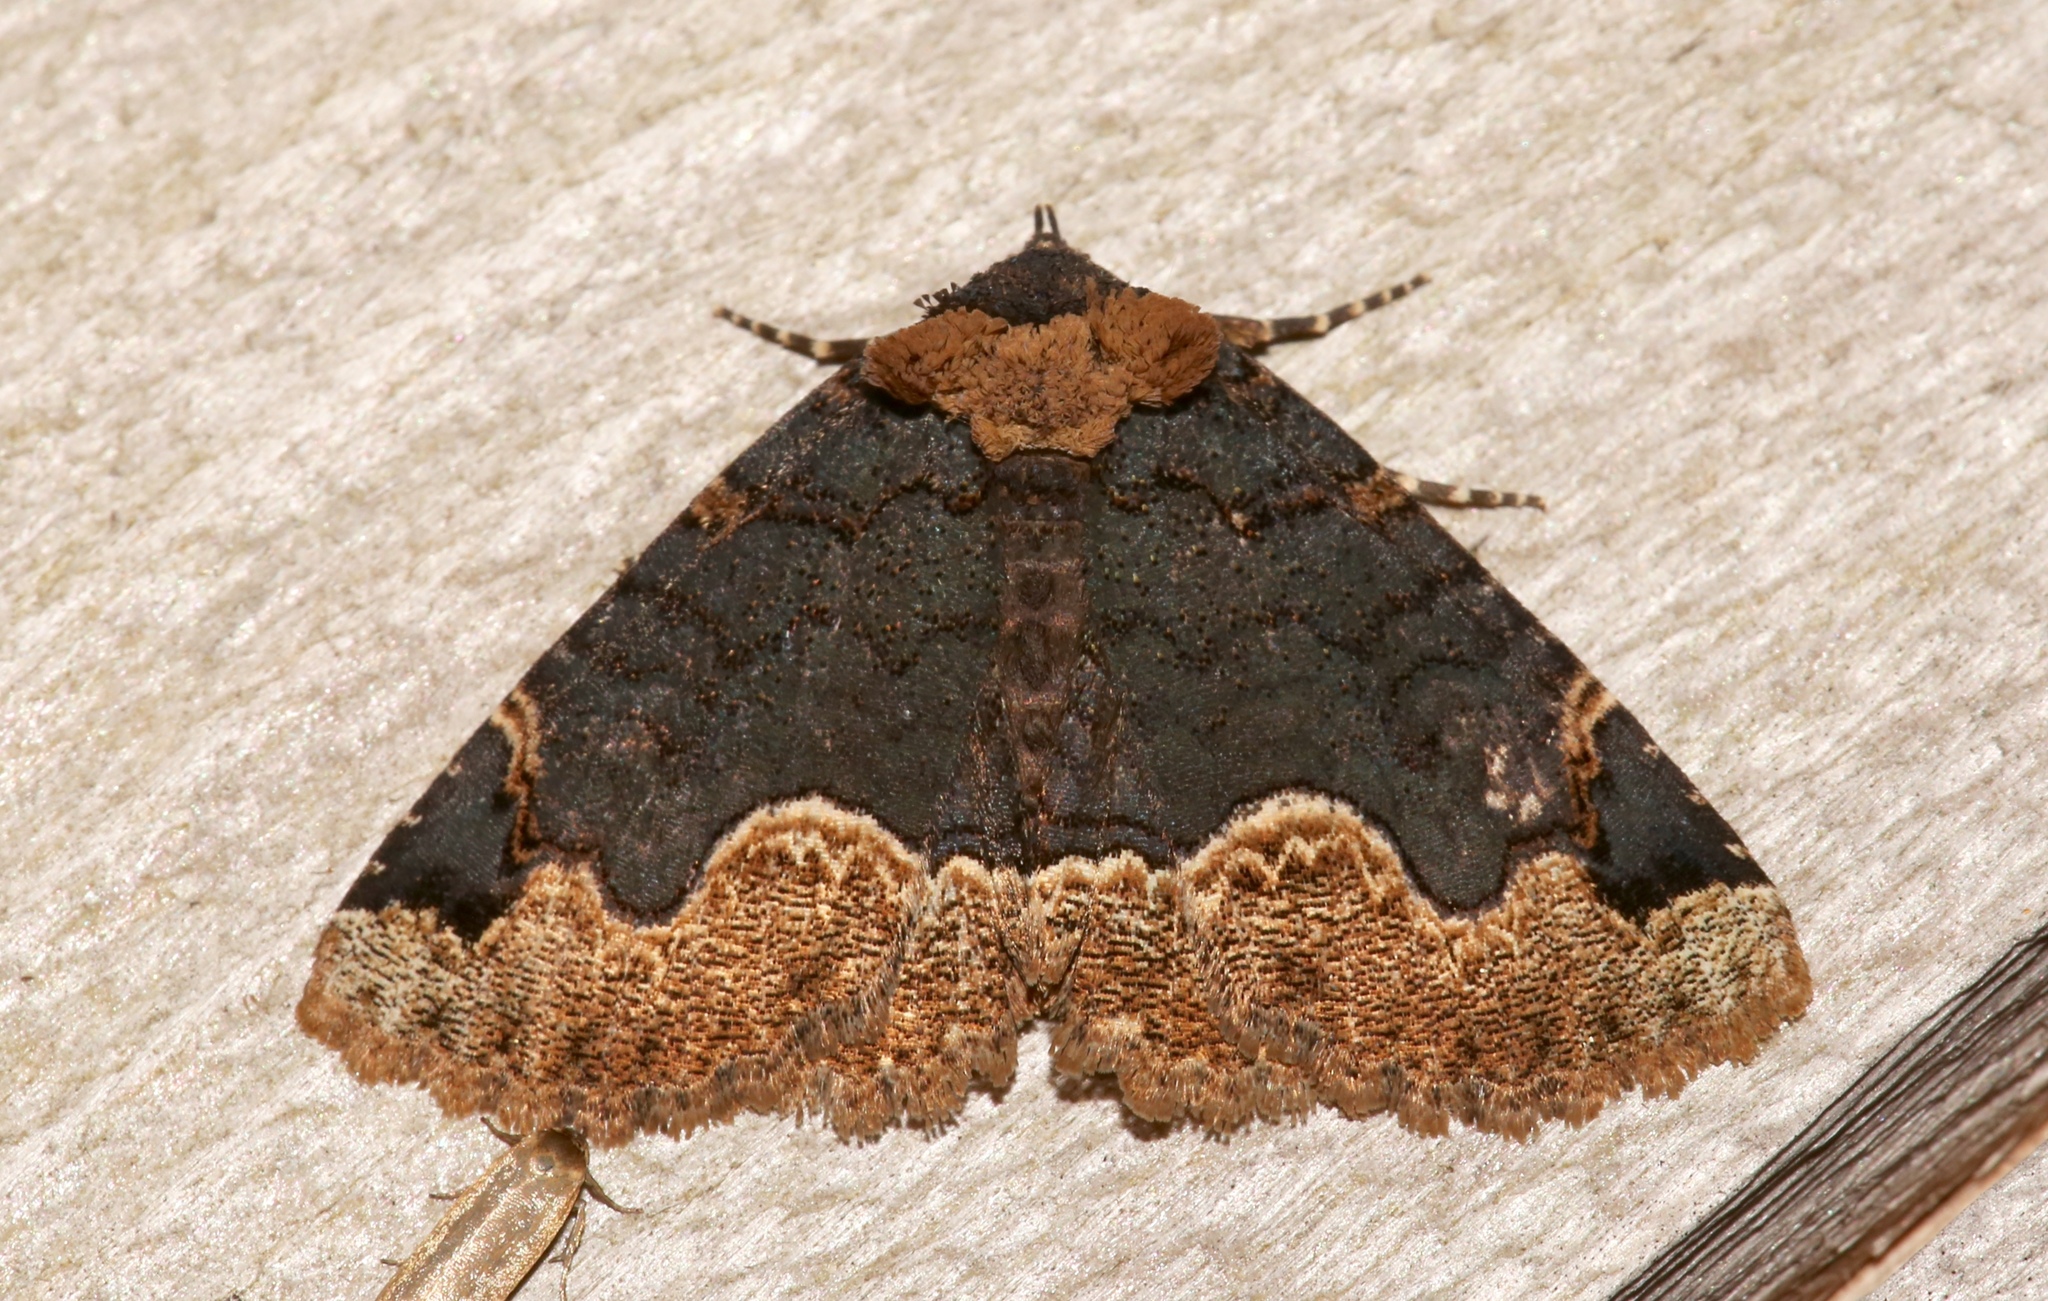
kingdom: Animalia
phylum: Arthropoda
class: Insecta
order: Lepidoptera
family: Erebidae
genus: Zale
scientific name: Zale horrida
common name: Horrid zale moth
